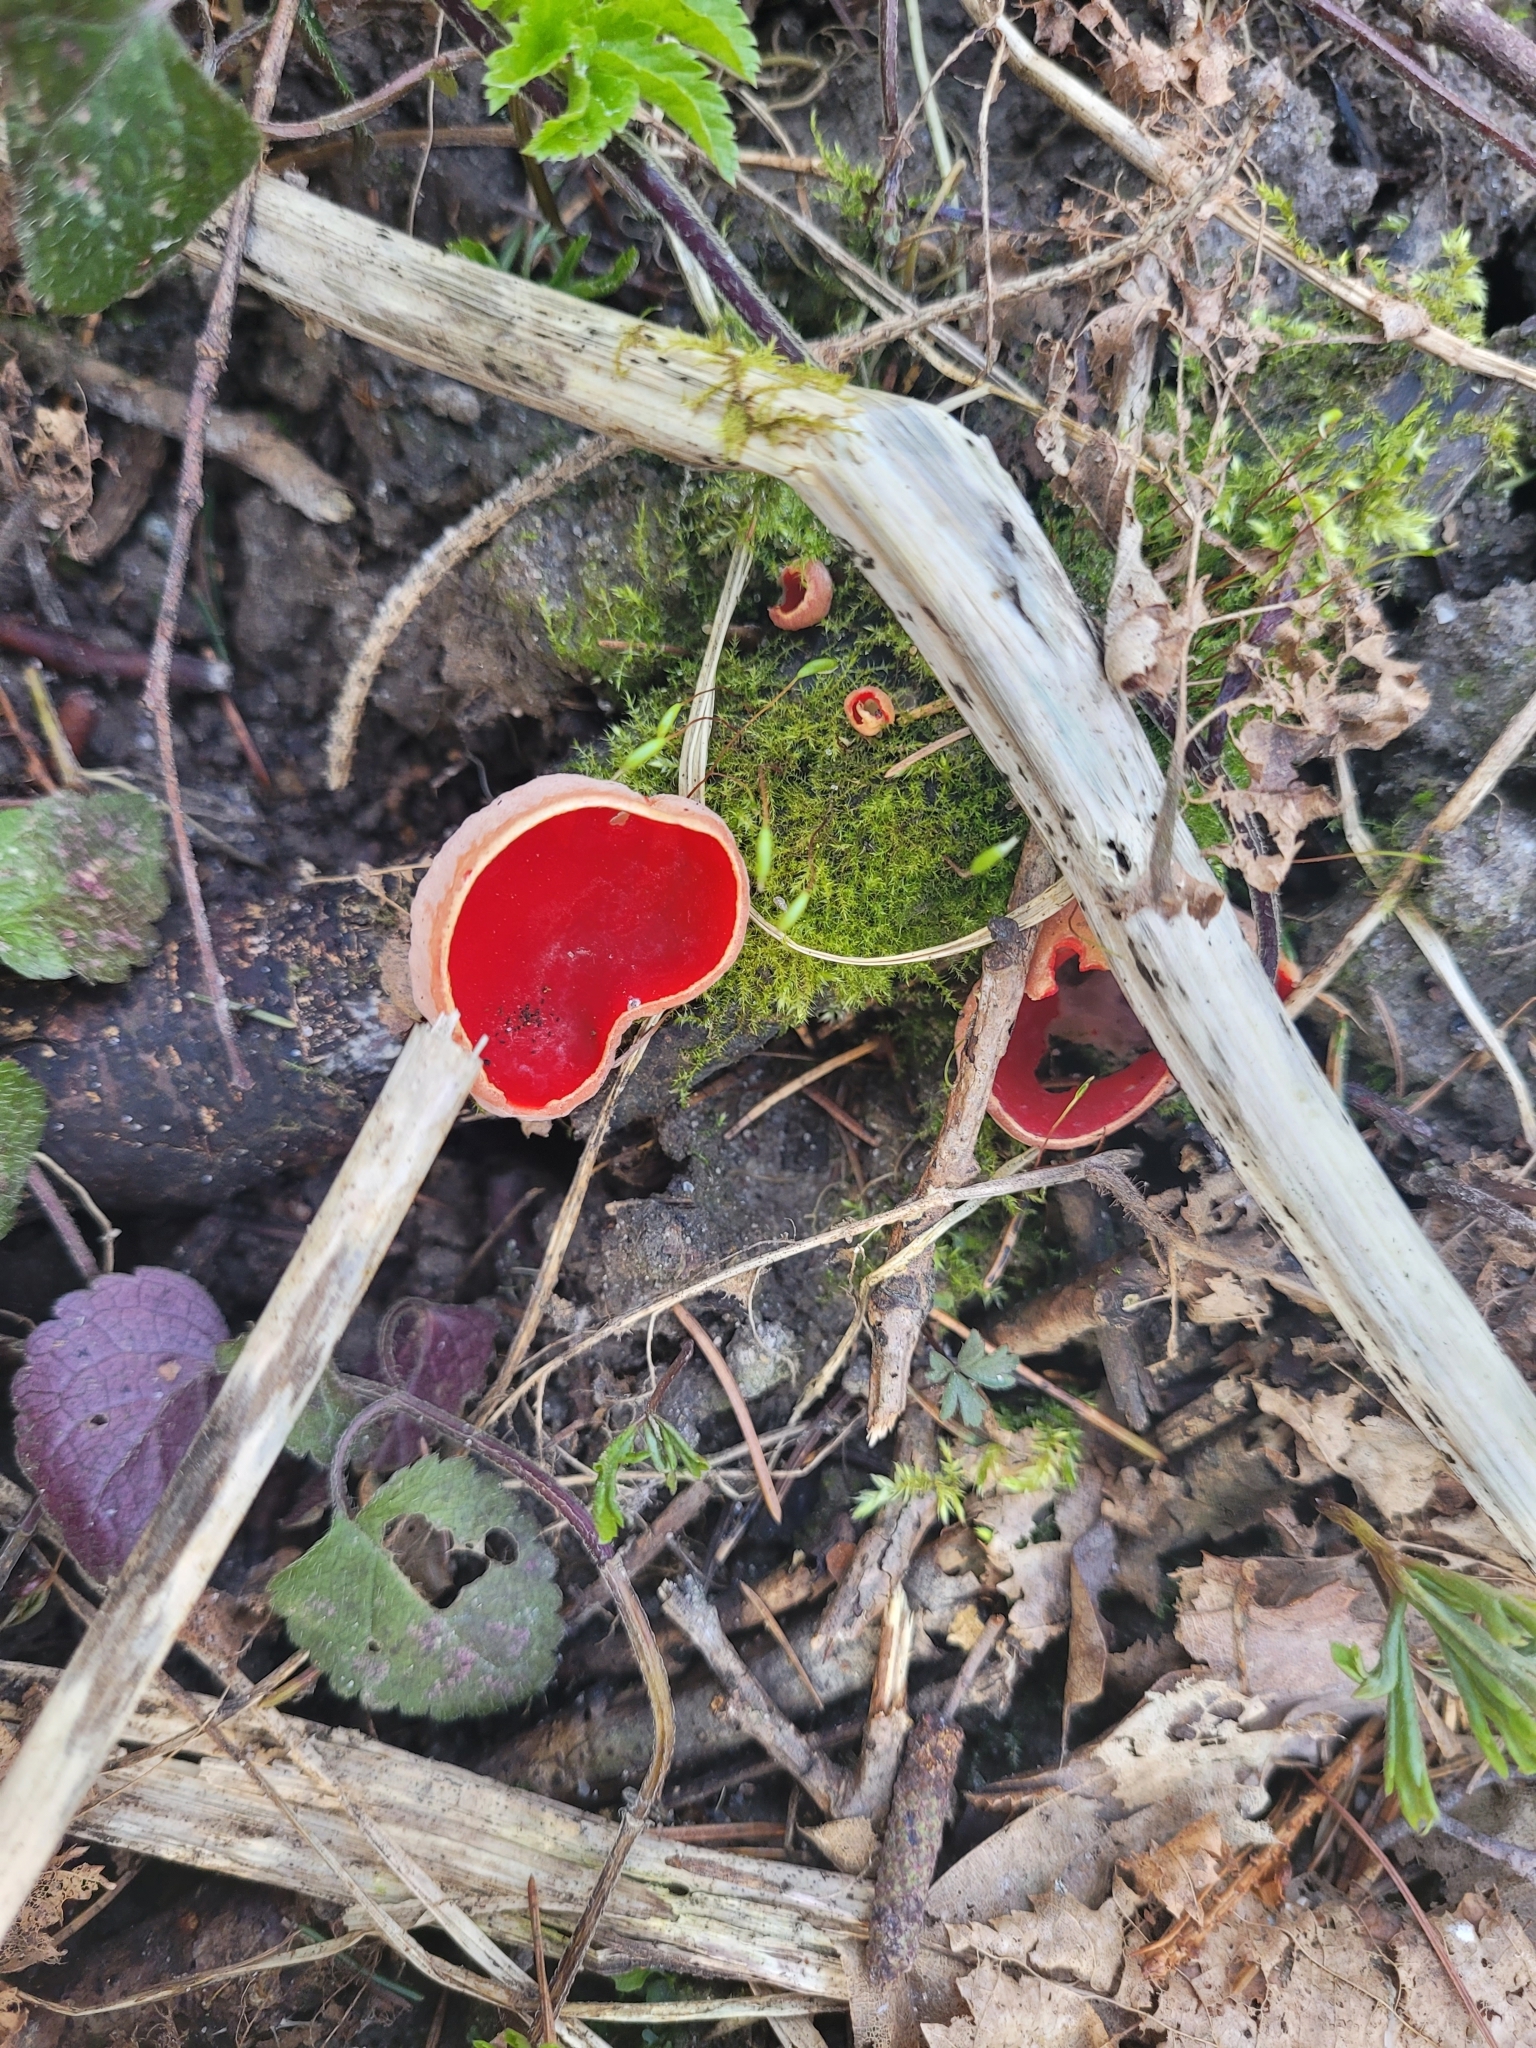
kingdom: Fungi
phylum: Ascomycota
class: Pezizomycetes
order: Pezizales
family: Sarcoscyphaceae
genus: Sarcoscypha
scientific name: Sarcoscypha
